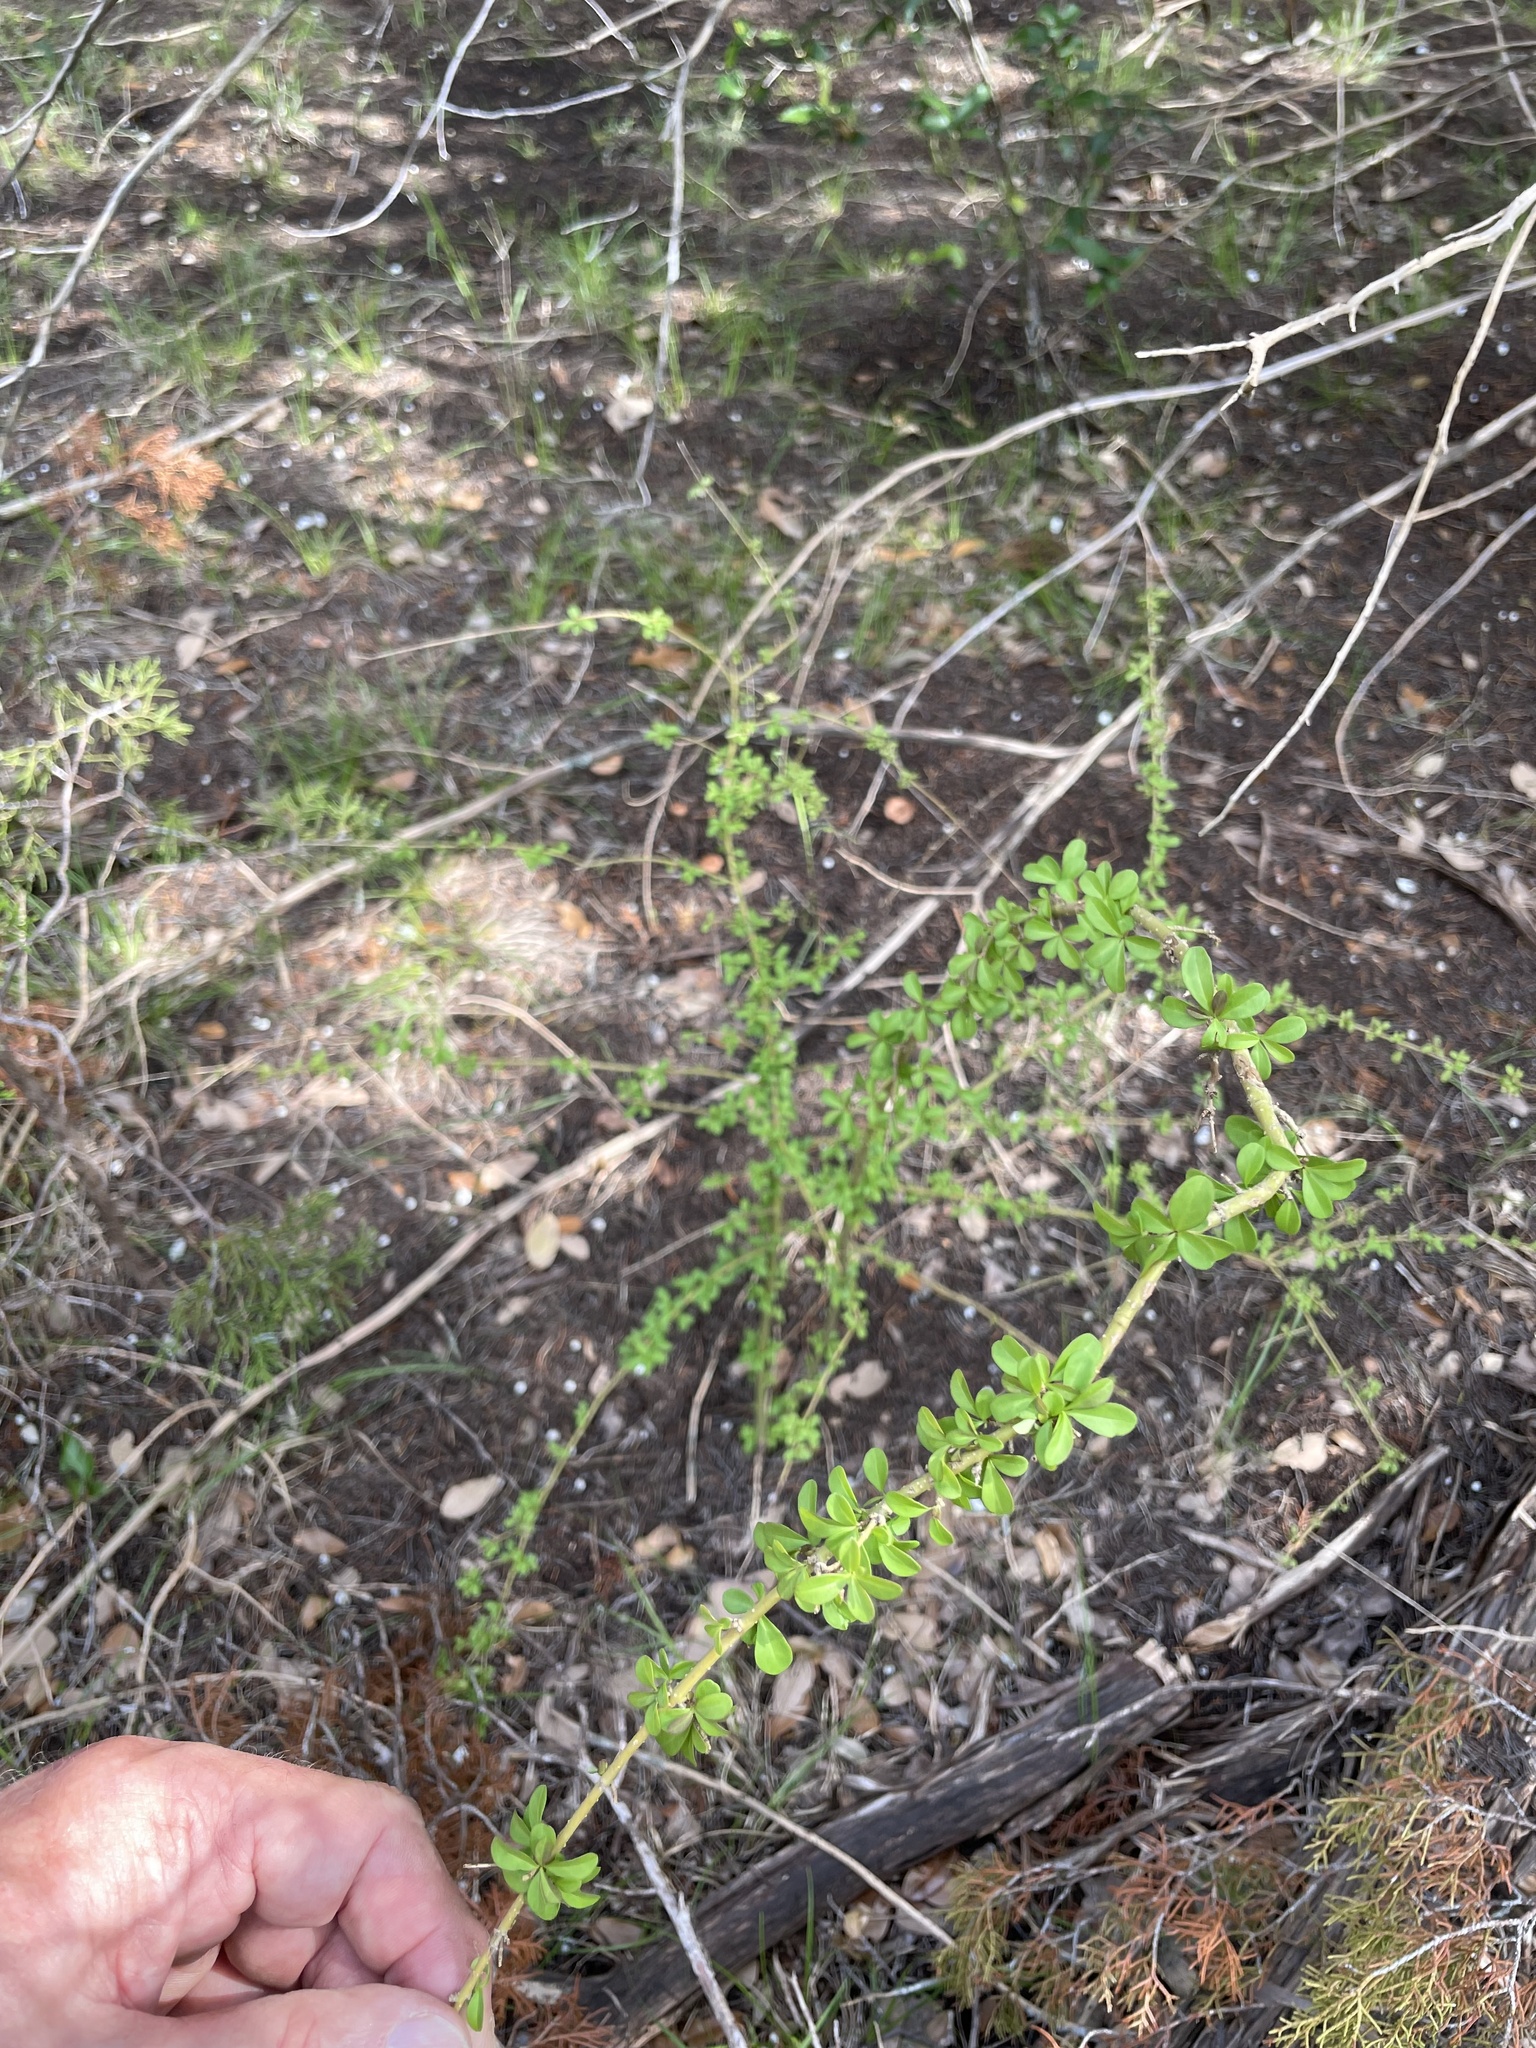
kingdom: Plantae
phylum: Tracheophyta
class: Magnoliopsida
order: Lamiales
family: Oleaceae
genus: Ligustrum
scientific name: Ligustrum quihoui
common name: Waxyleaf privet
